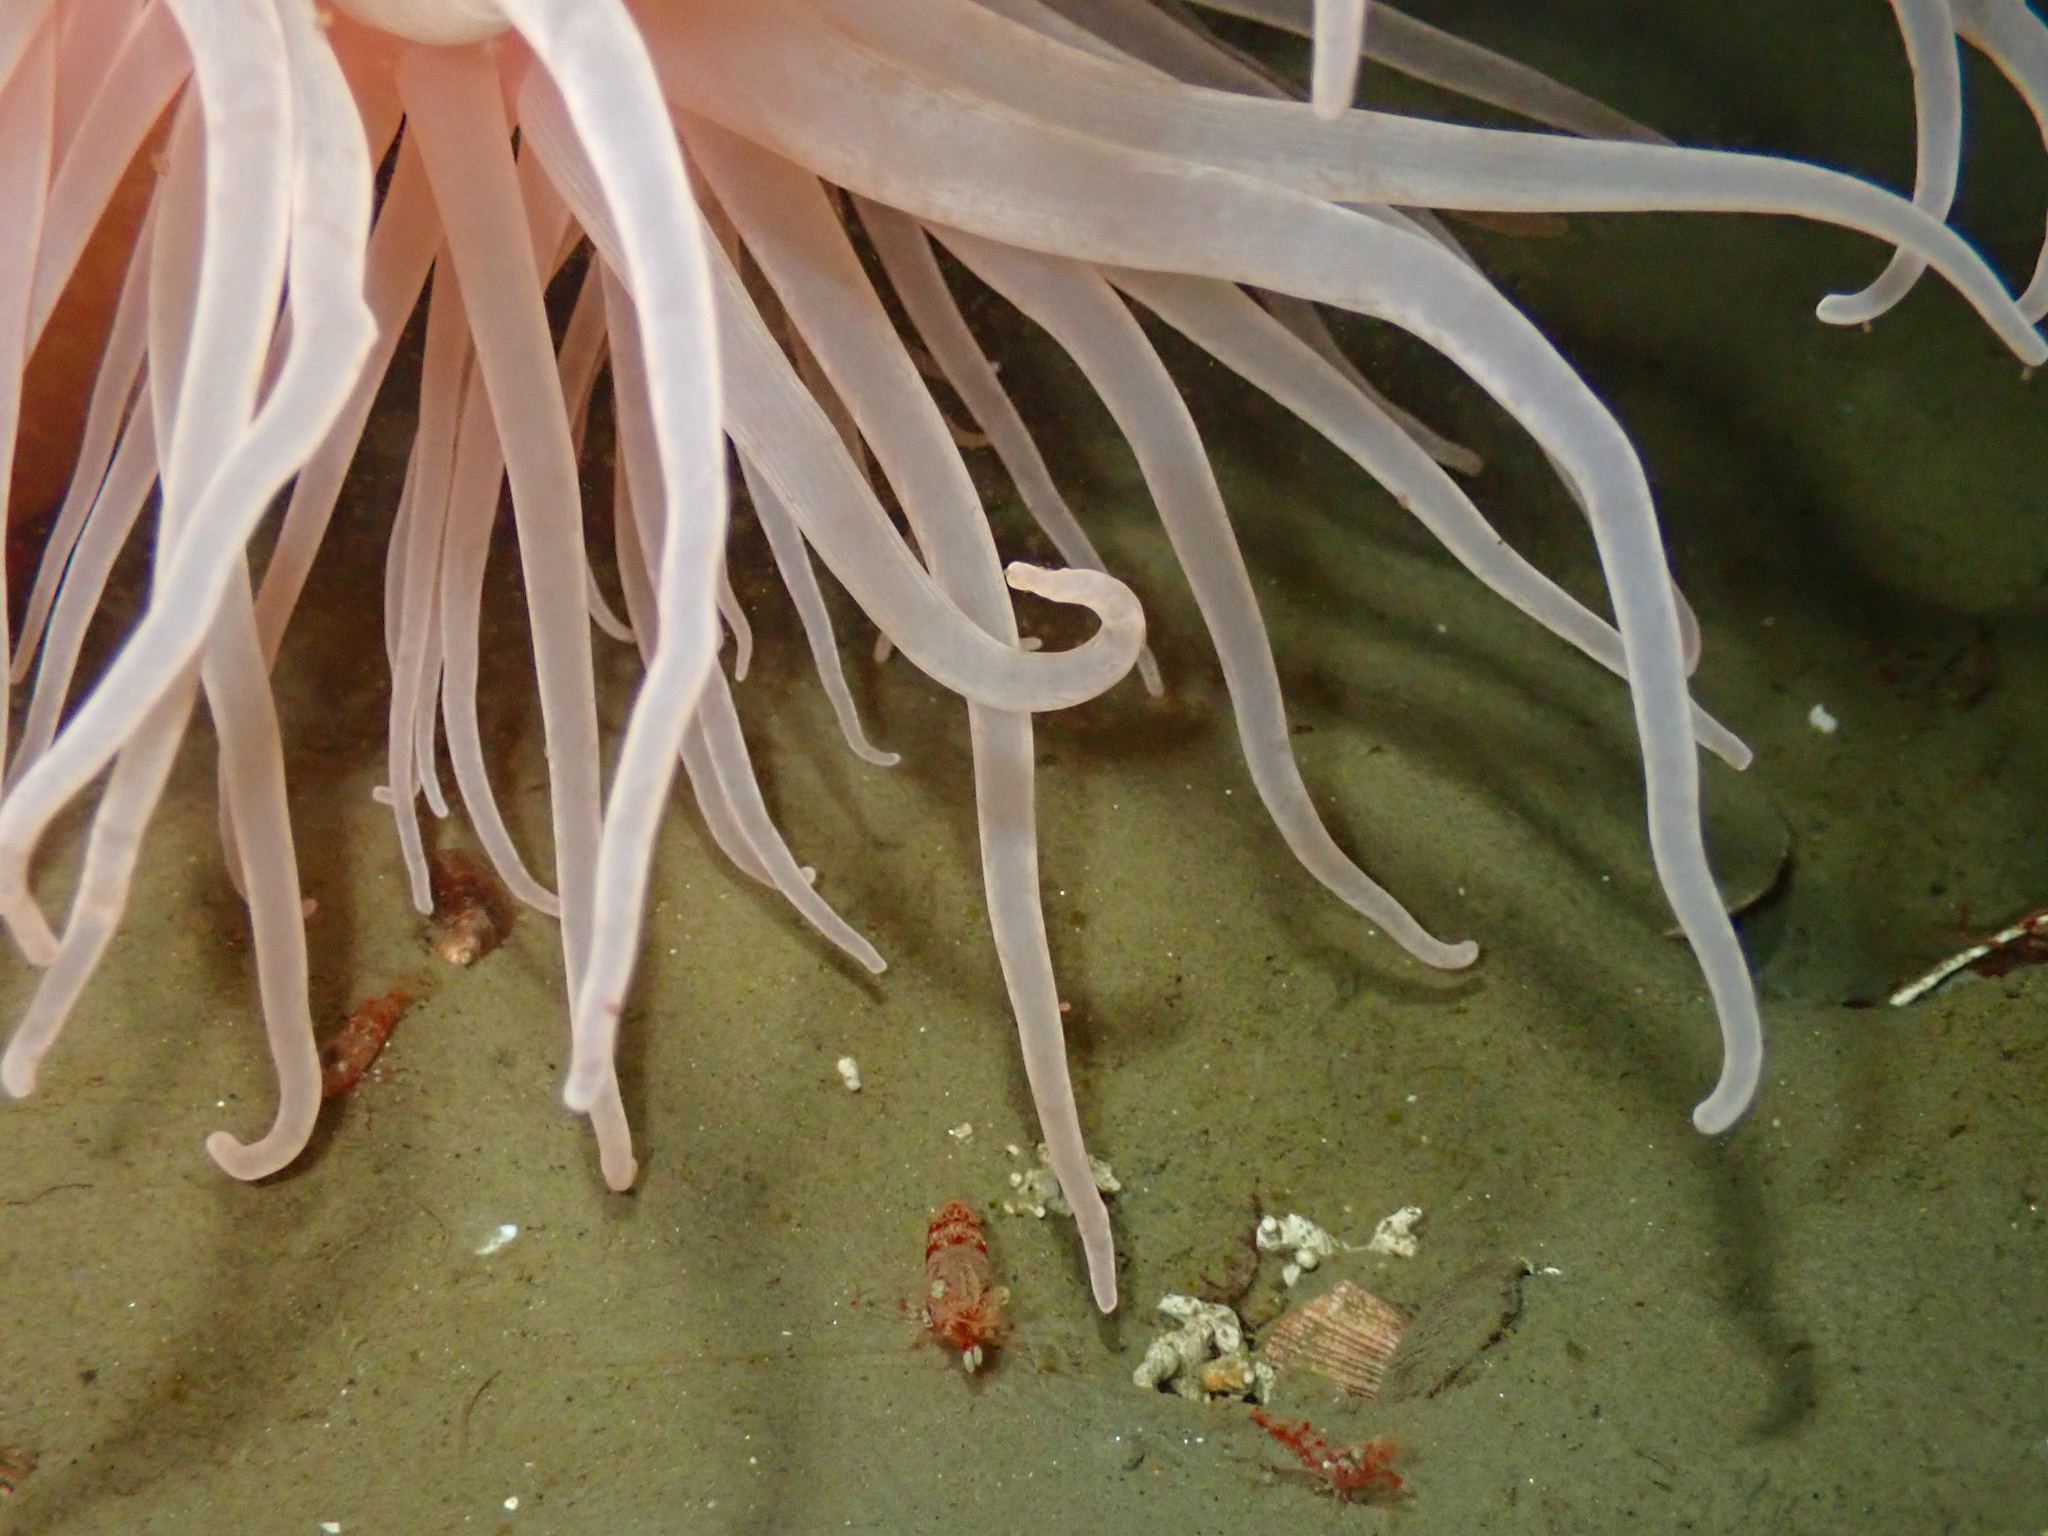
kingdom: Animalia
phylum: Arthropoda
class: Malacostraca
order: Decapoda
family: Thoridae
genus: Spirontocaris
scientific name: Spirontocaris lilljeborgii
